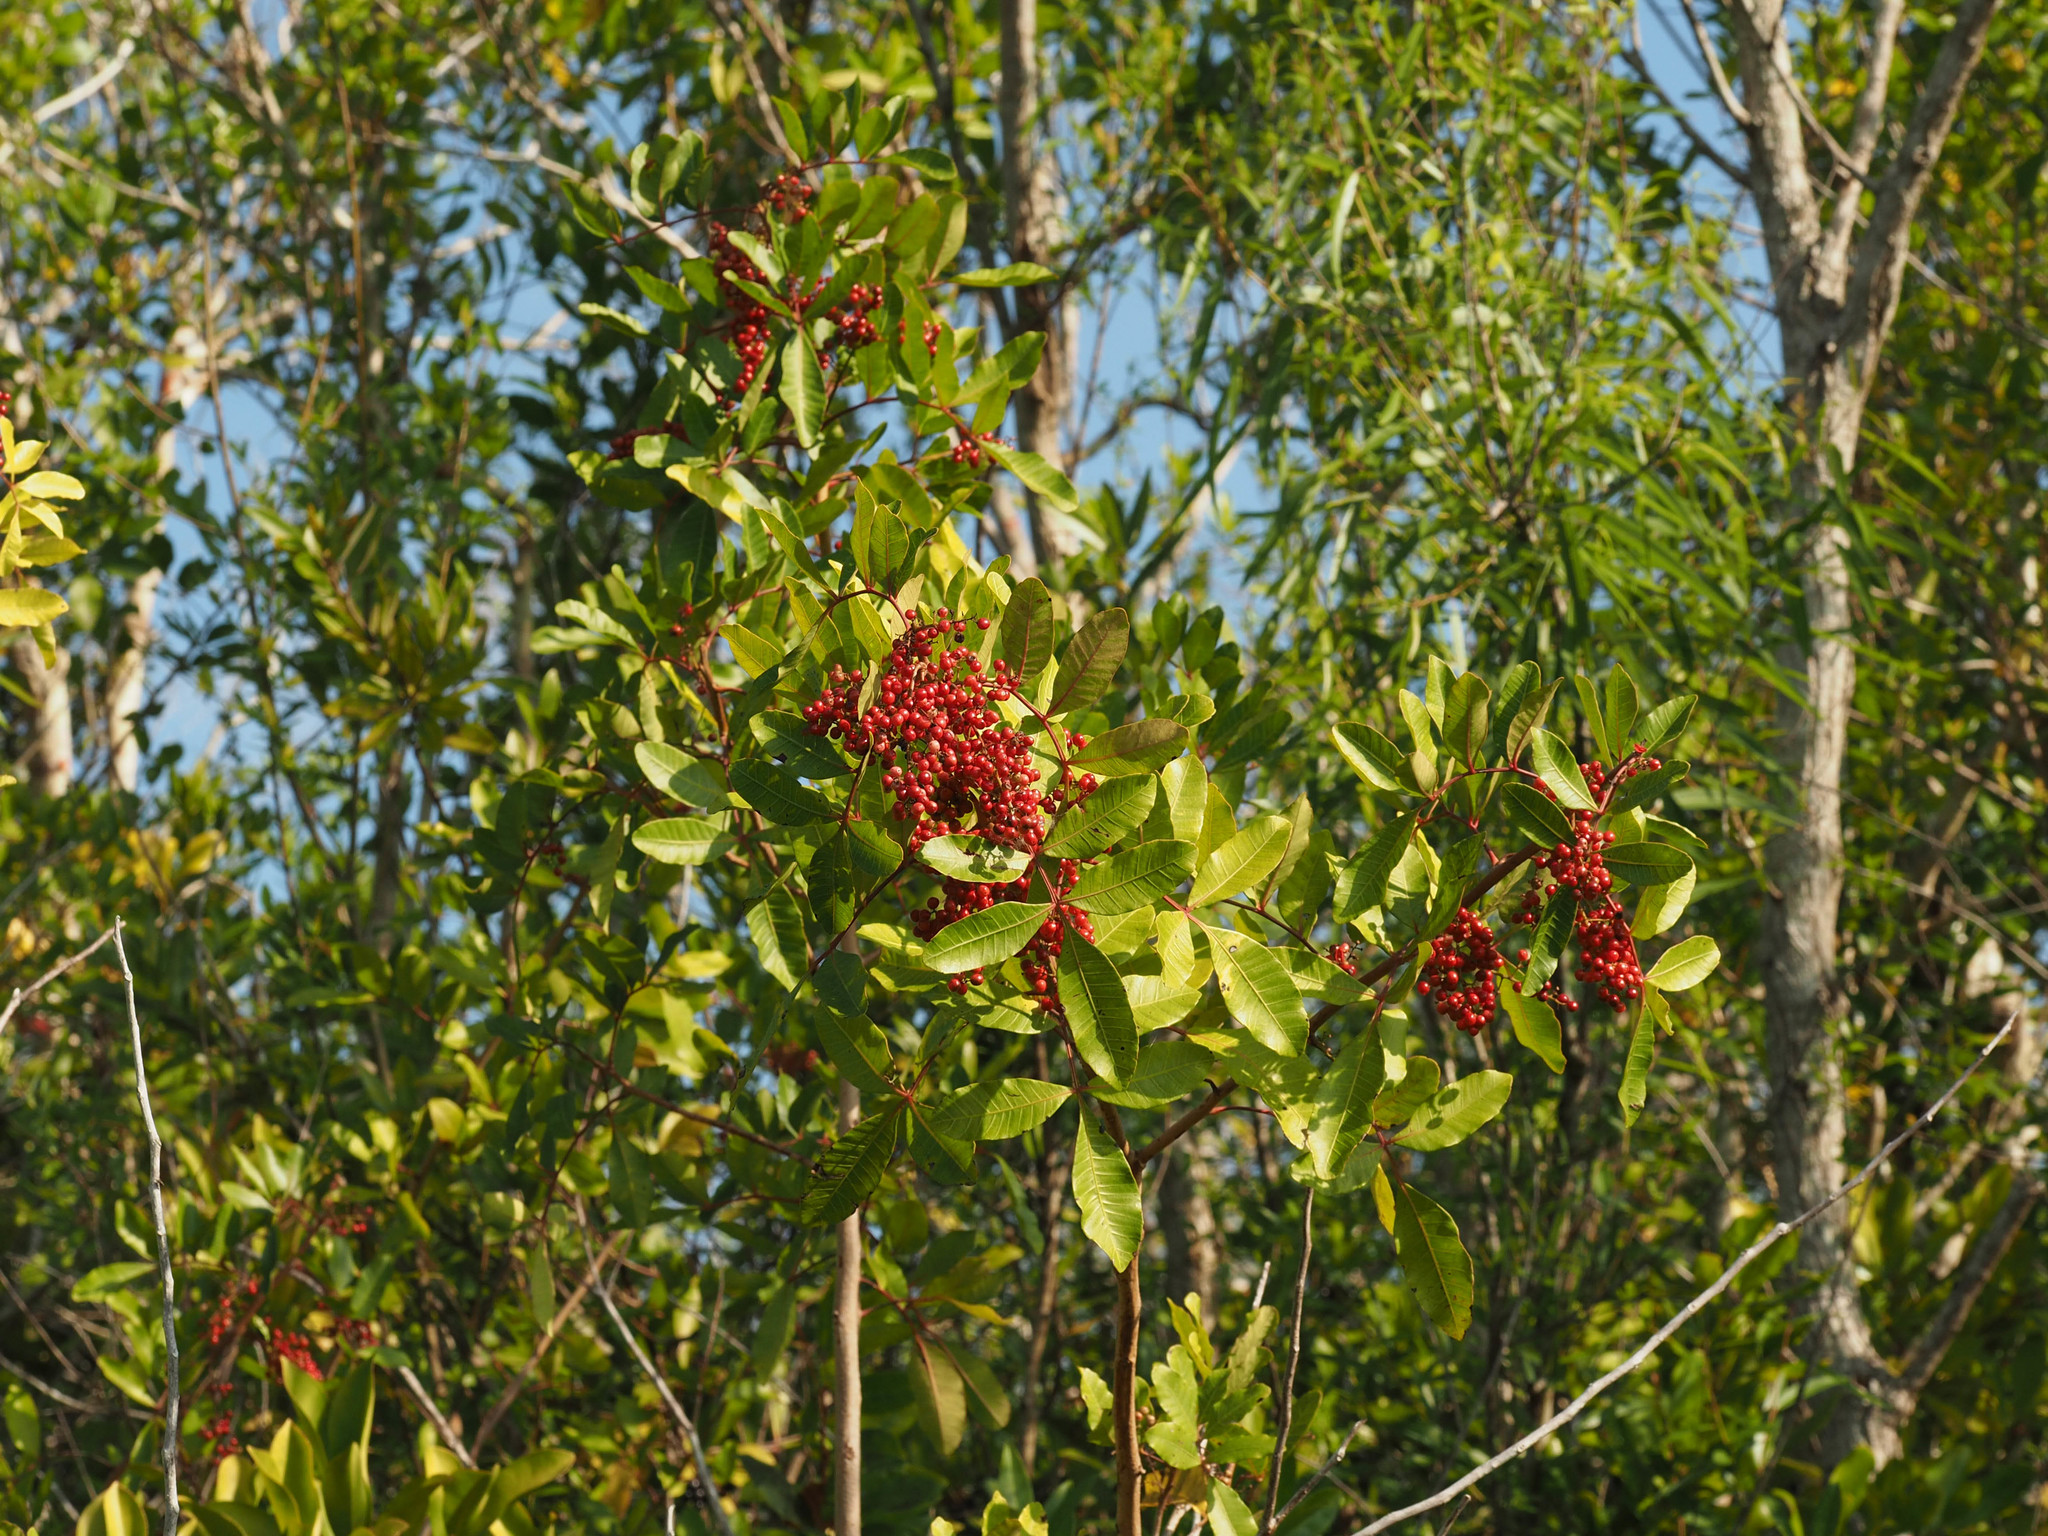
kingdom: Plantae
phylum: Tracheophyta
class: Magnoliopsida
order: Sapindales
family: Anacardiaceae
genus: Schinus
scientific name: Schinus terebinthifolia
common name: Brazilian peppertree
